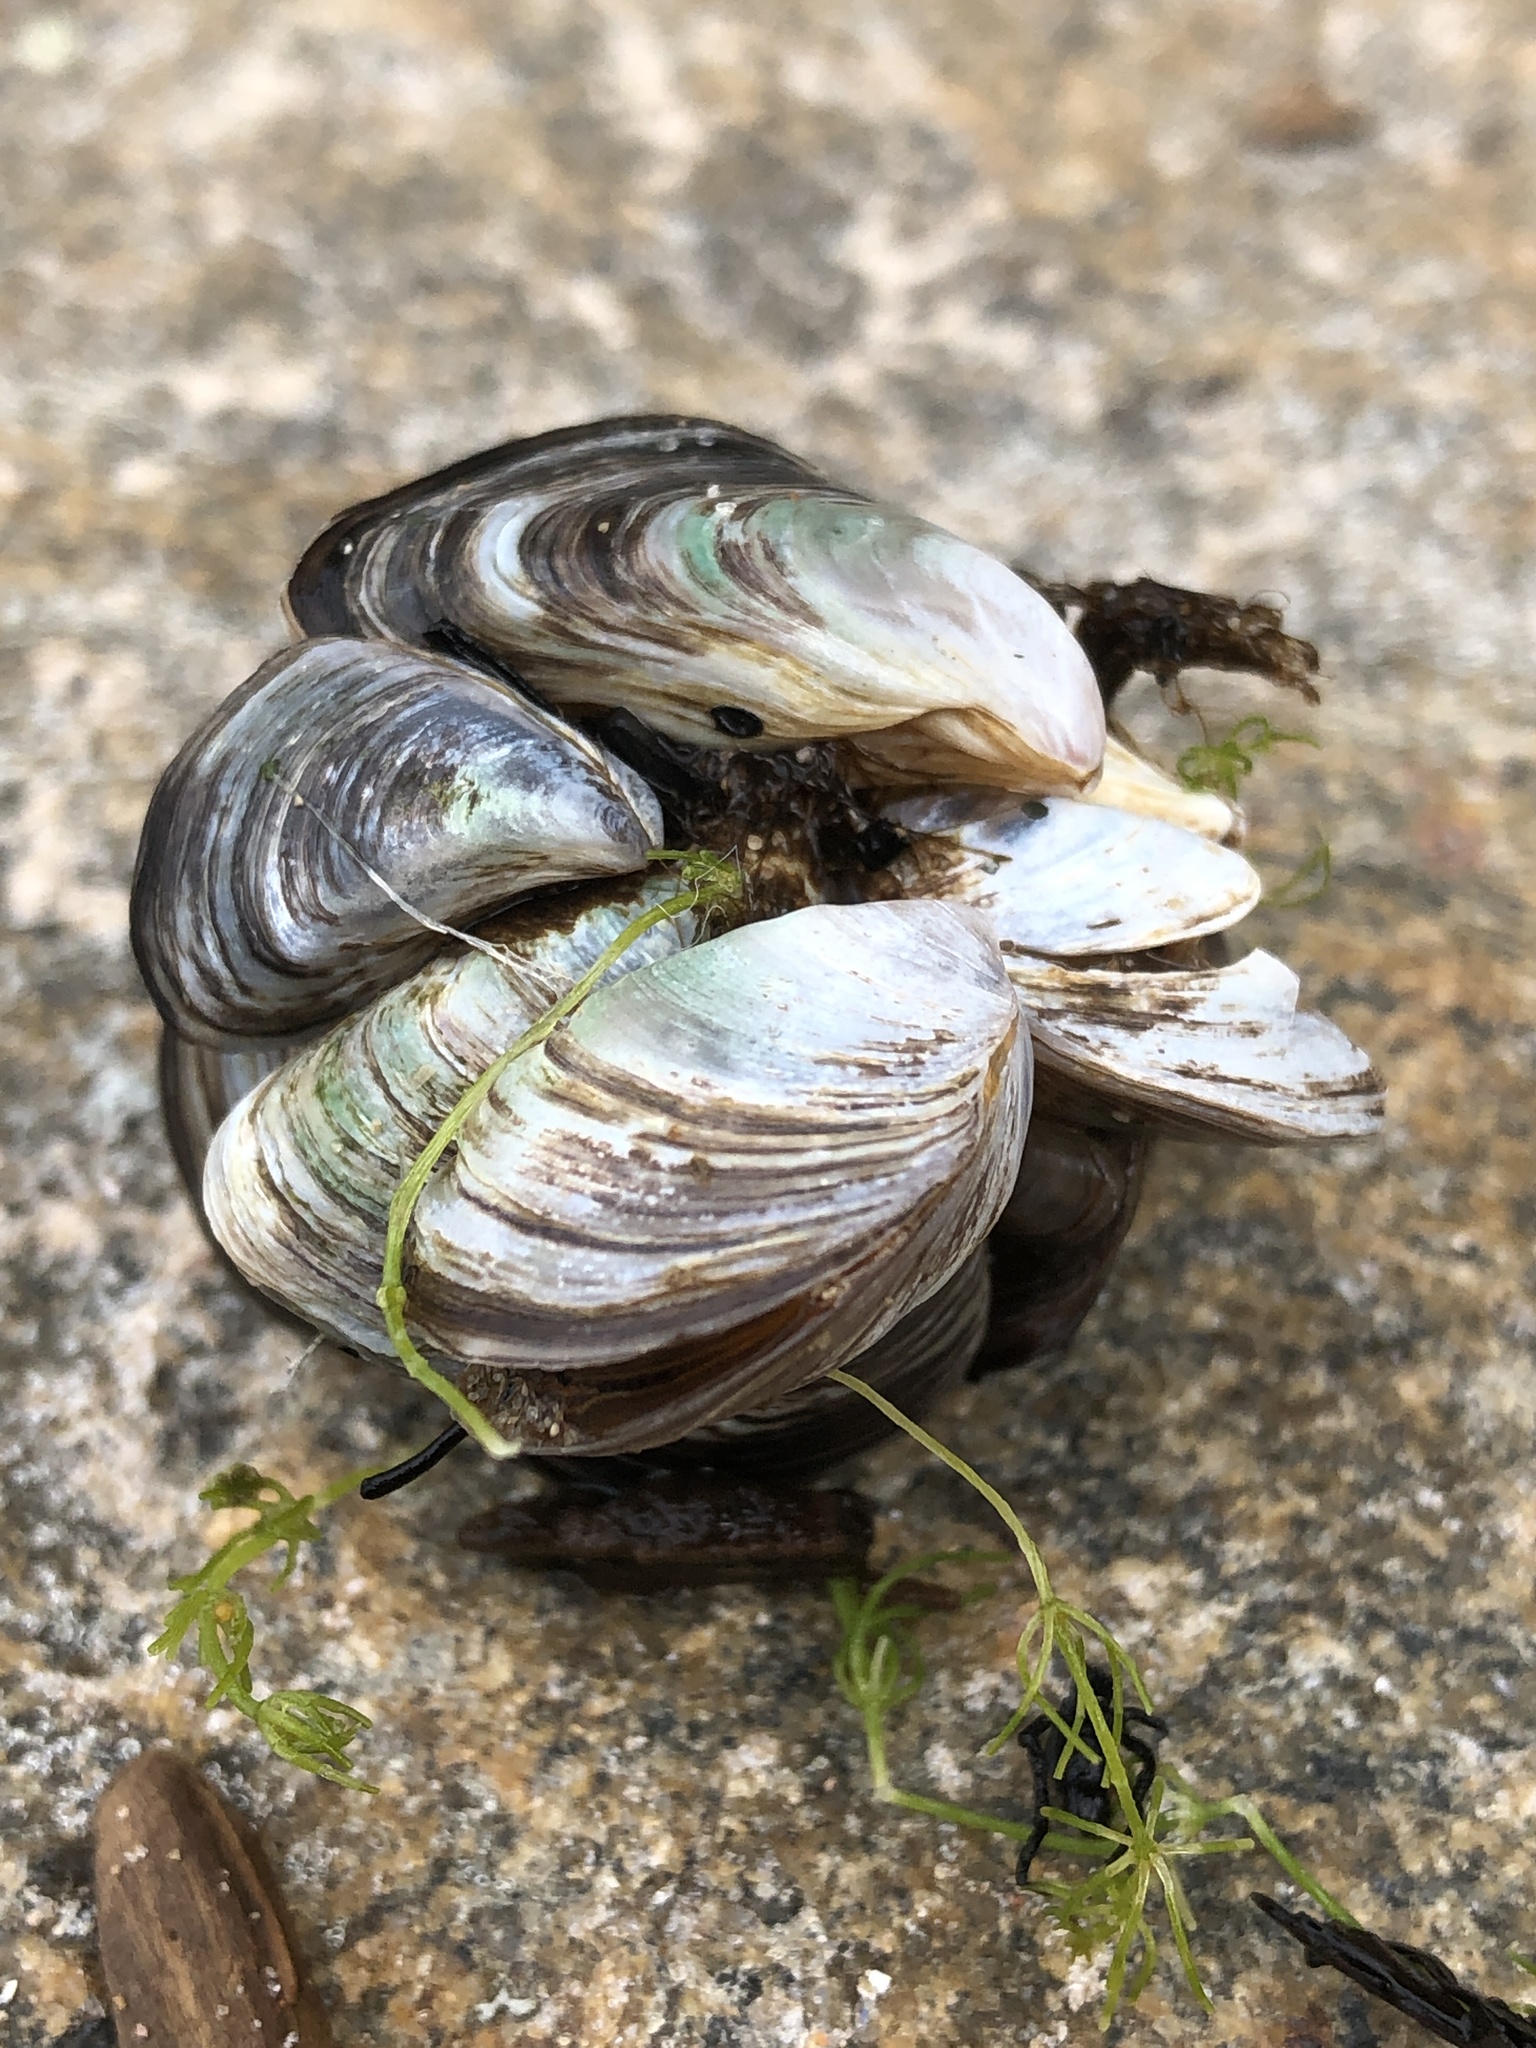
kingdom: Animalia
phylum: Mollusca
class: Bivalvia
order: Myida
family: Dreissenidae
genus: Dreissena
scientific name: Dreissena polymorpha
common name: Zebra mussel
